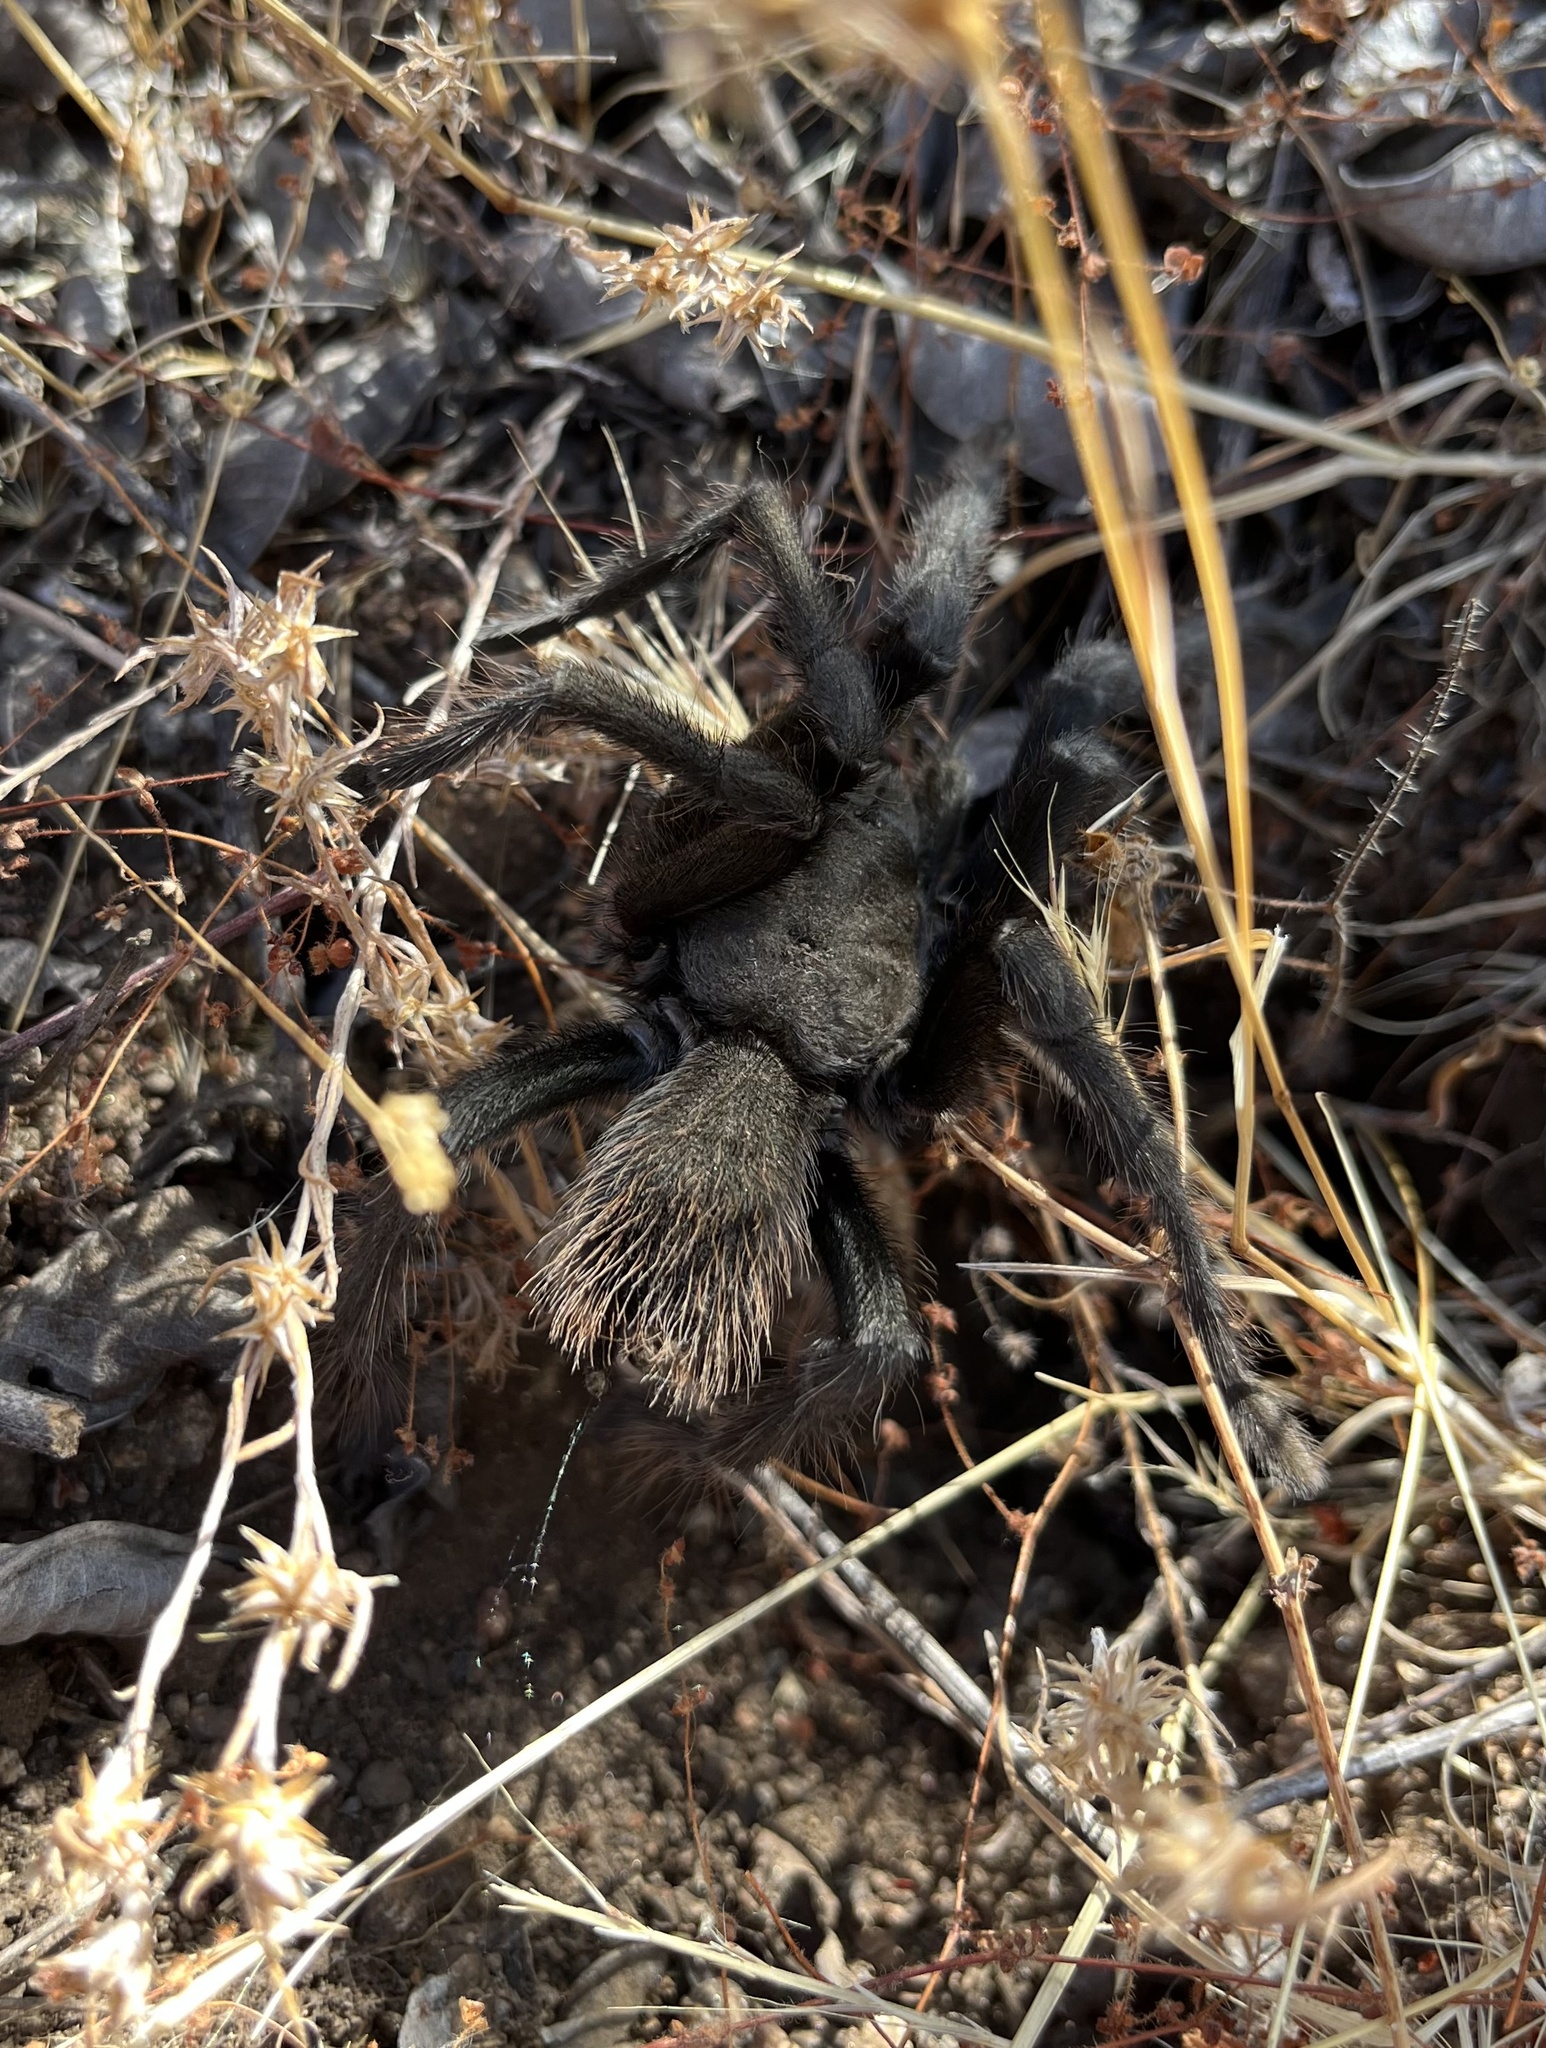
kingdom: Animalia
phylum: Arthropoda
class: Arachnida
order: Araneae
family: Theraphosidae
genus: Aphonopelma
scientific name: Aphonopelma steindachneri
